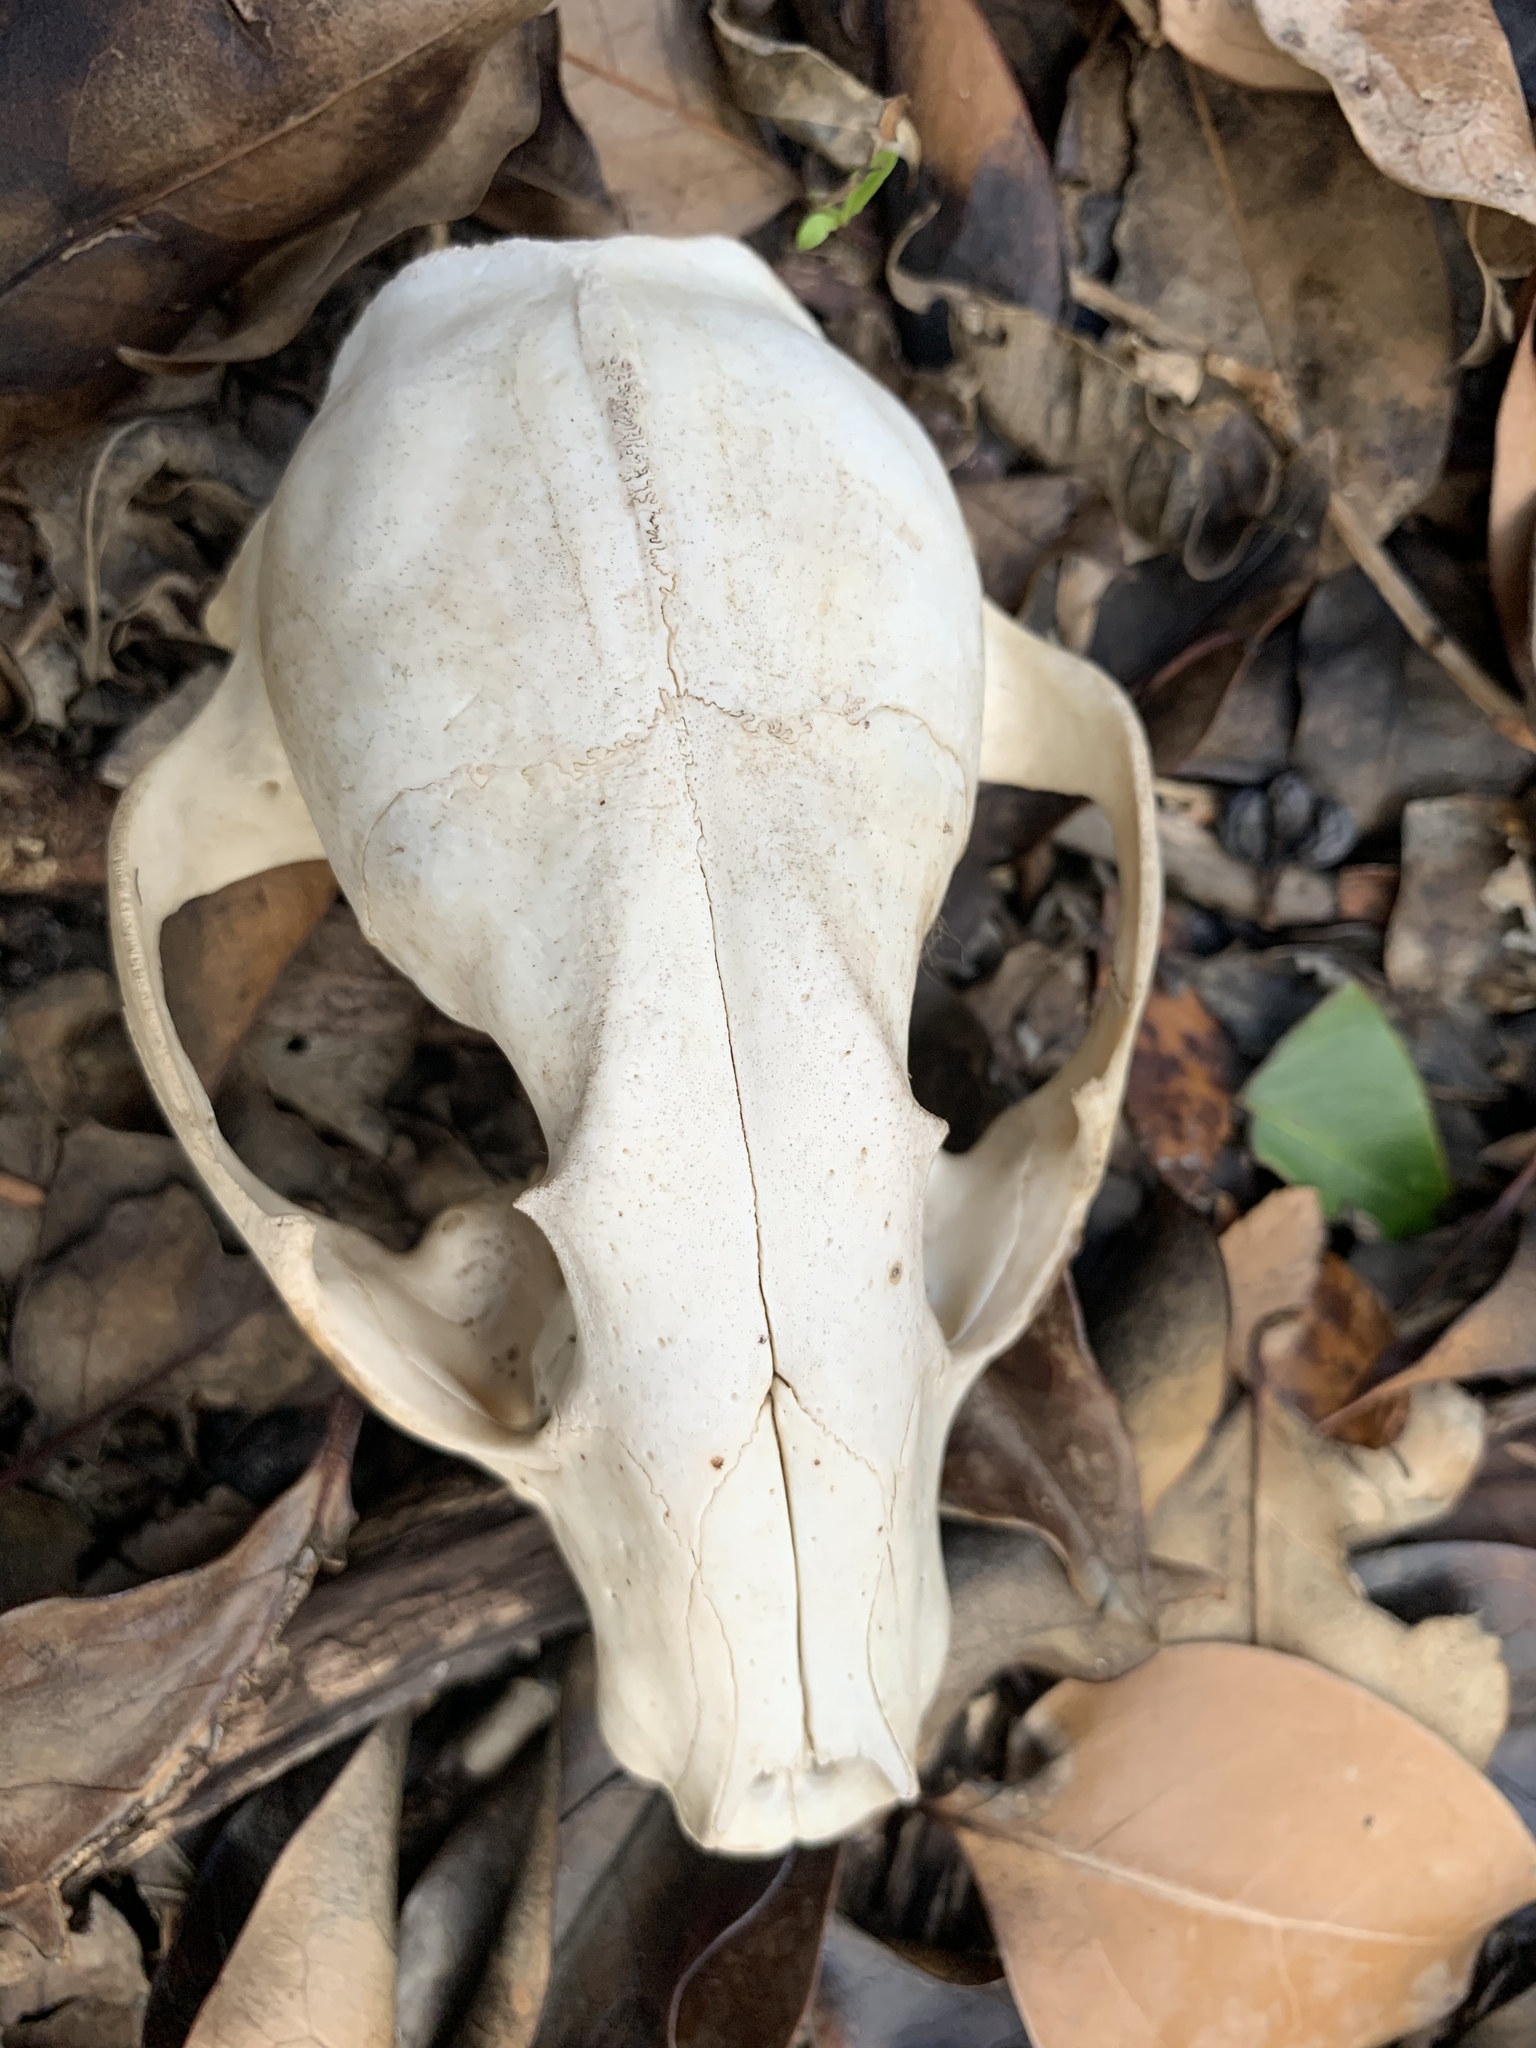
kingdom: Animalia
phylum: Chordata
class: Mammalia
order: Carnivora
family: Procyonidae
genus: Procyon
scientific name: Procyon lotor
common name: Raccoon
